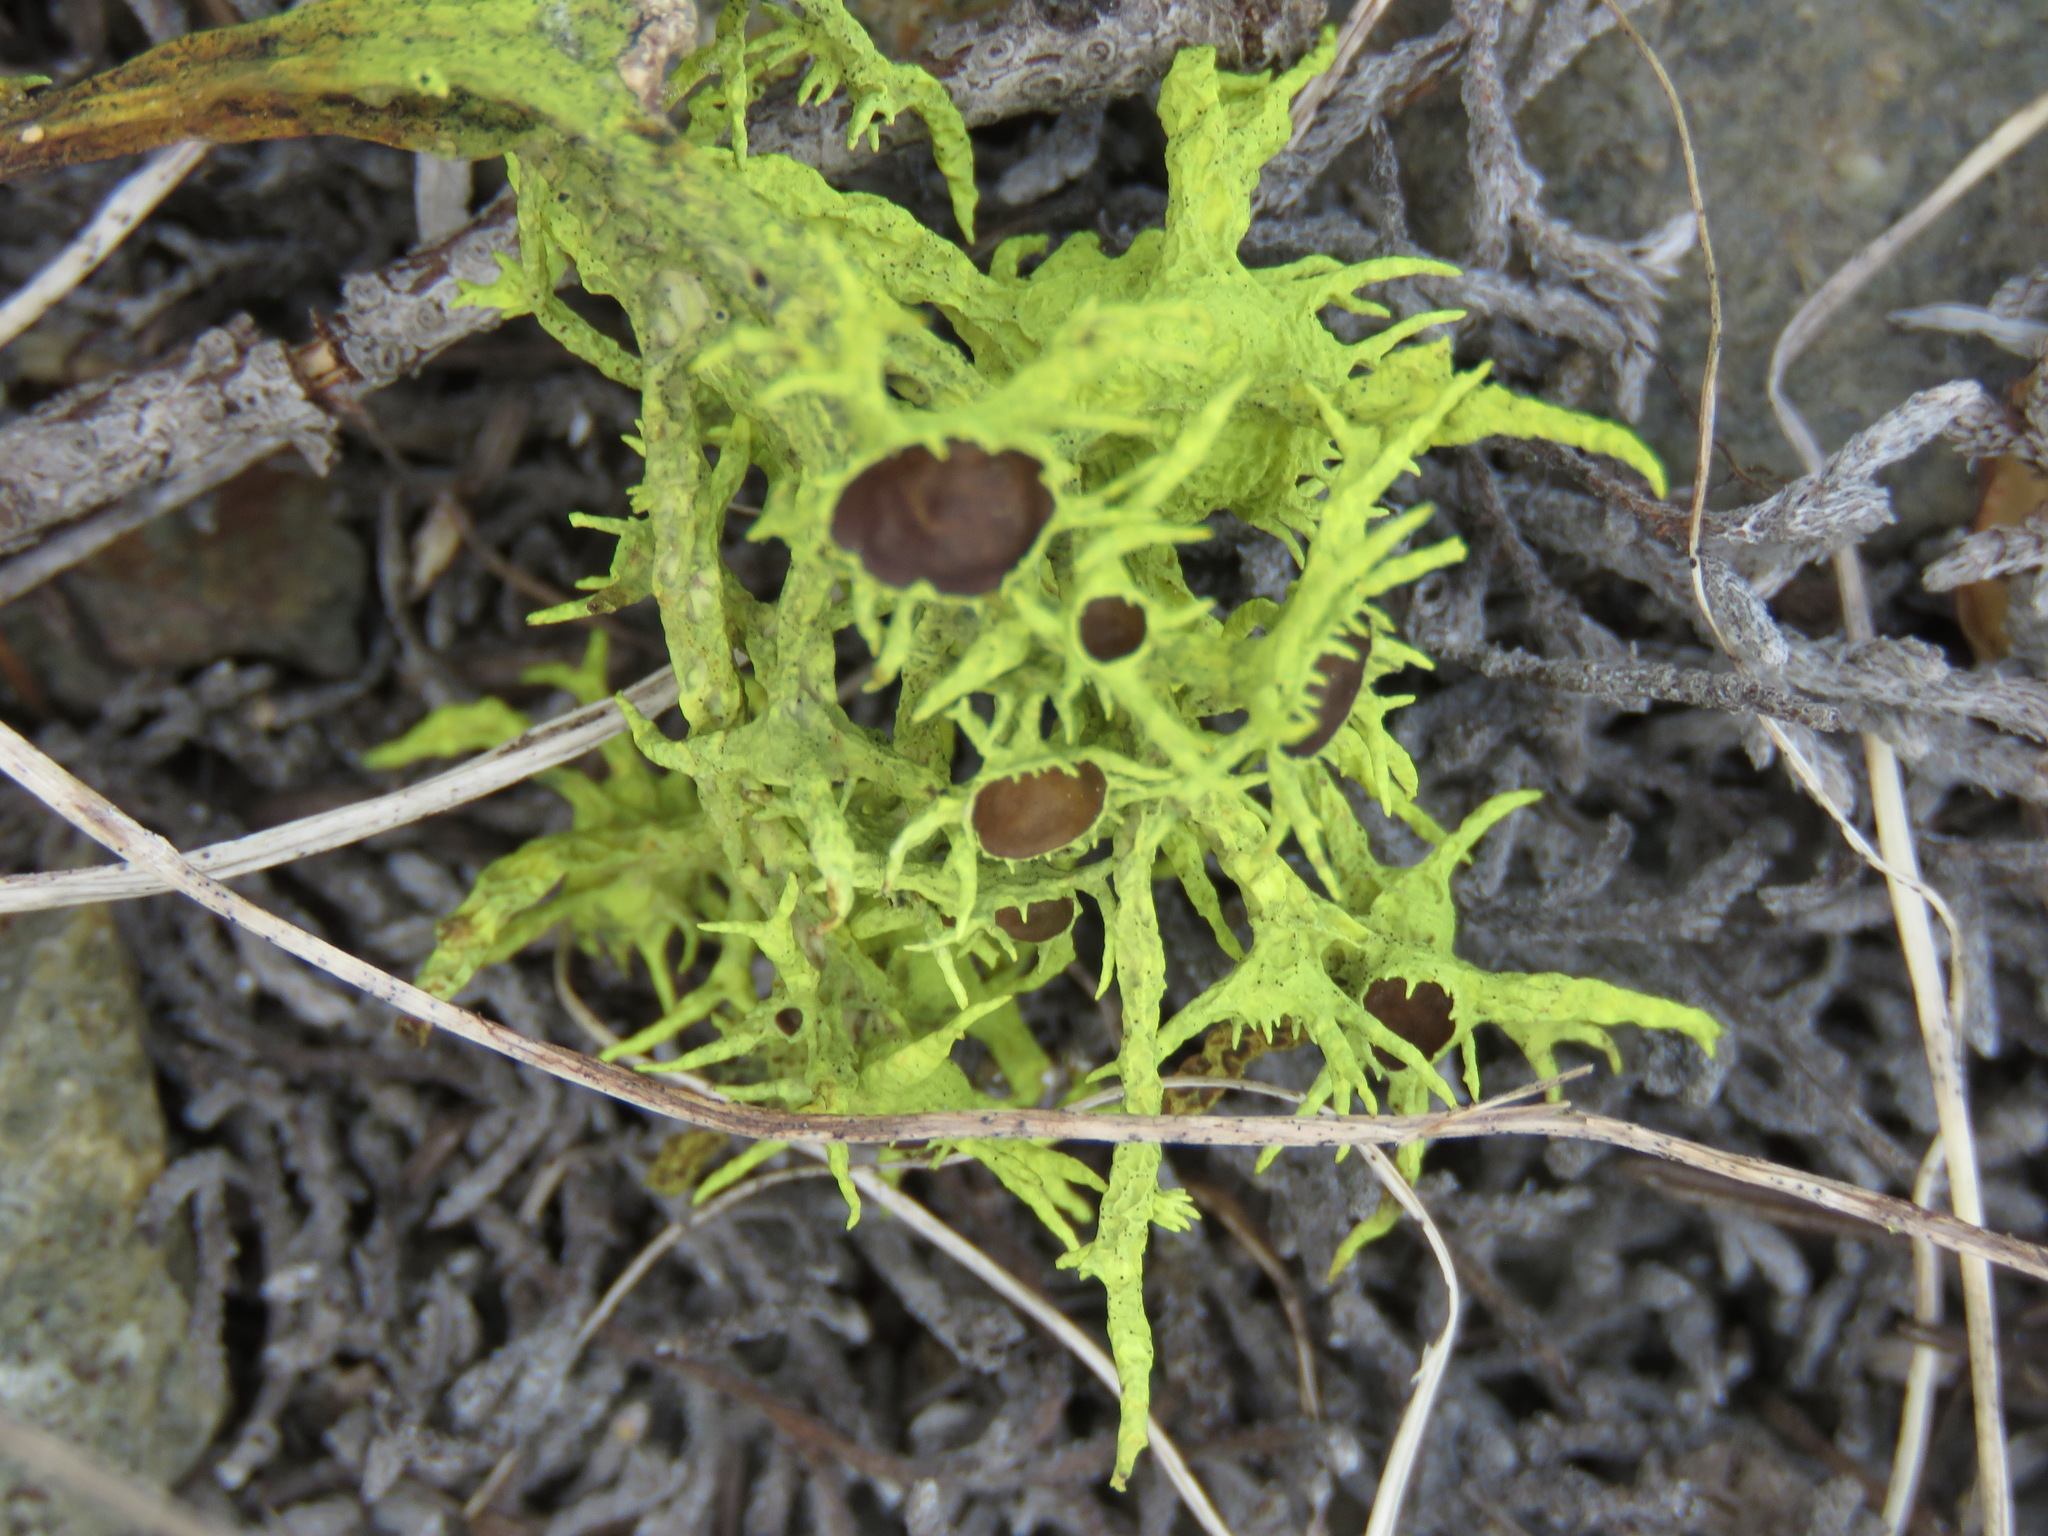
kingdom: Fungi
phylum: Ascomycota
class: Lecanoromycetes
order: Lecanorales
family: Parmeliaceae
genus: Letharia
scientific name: Letharia columbiana
